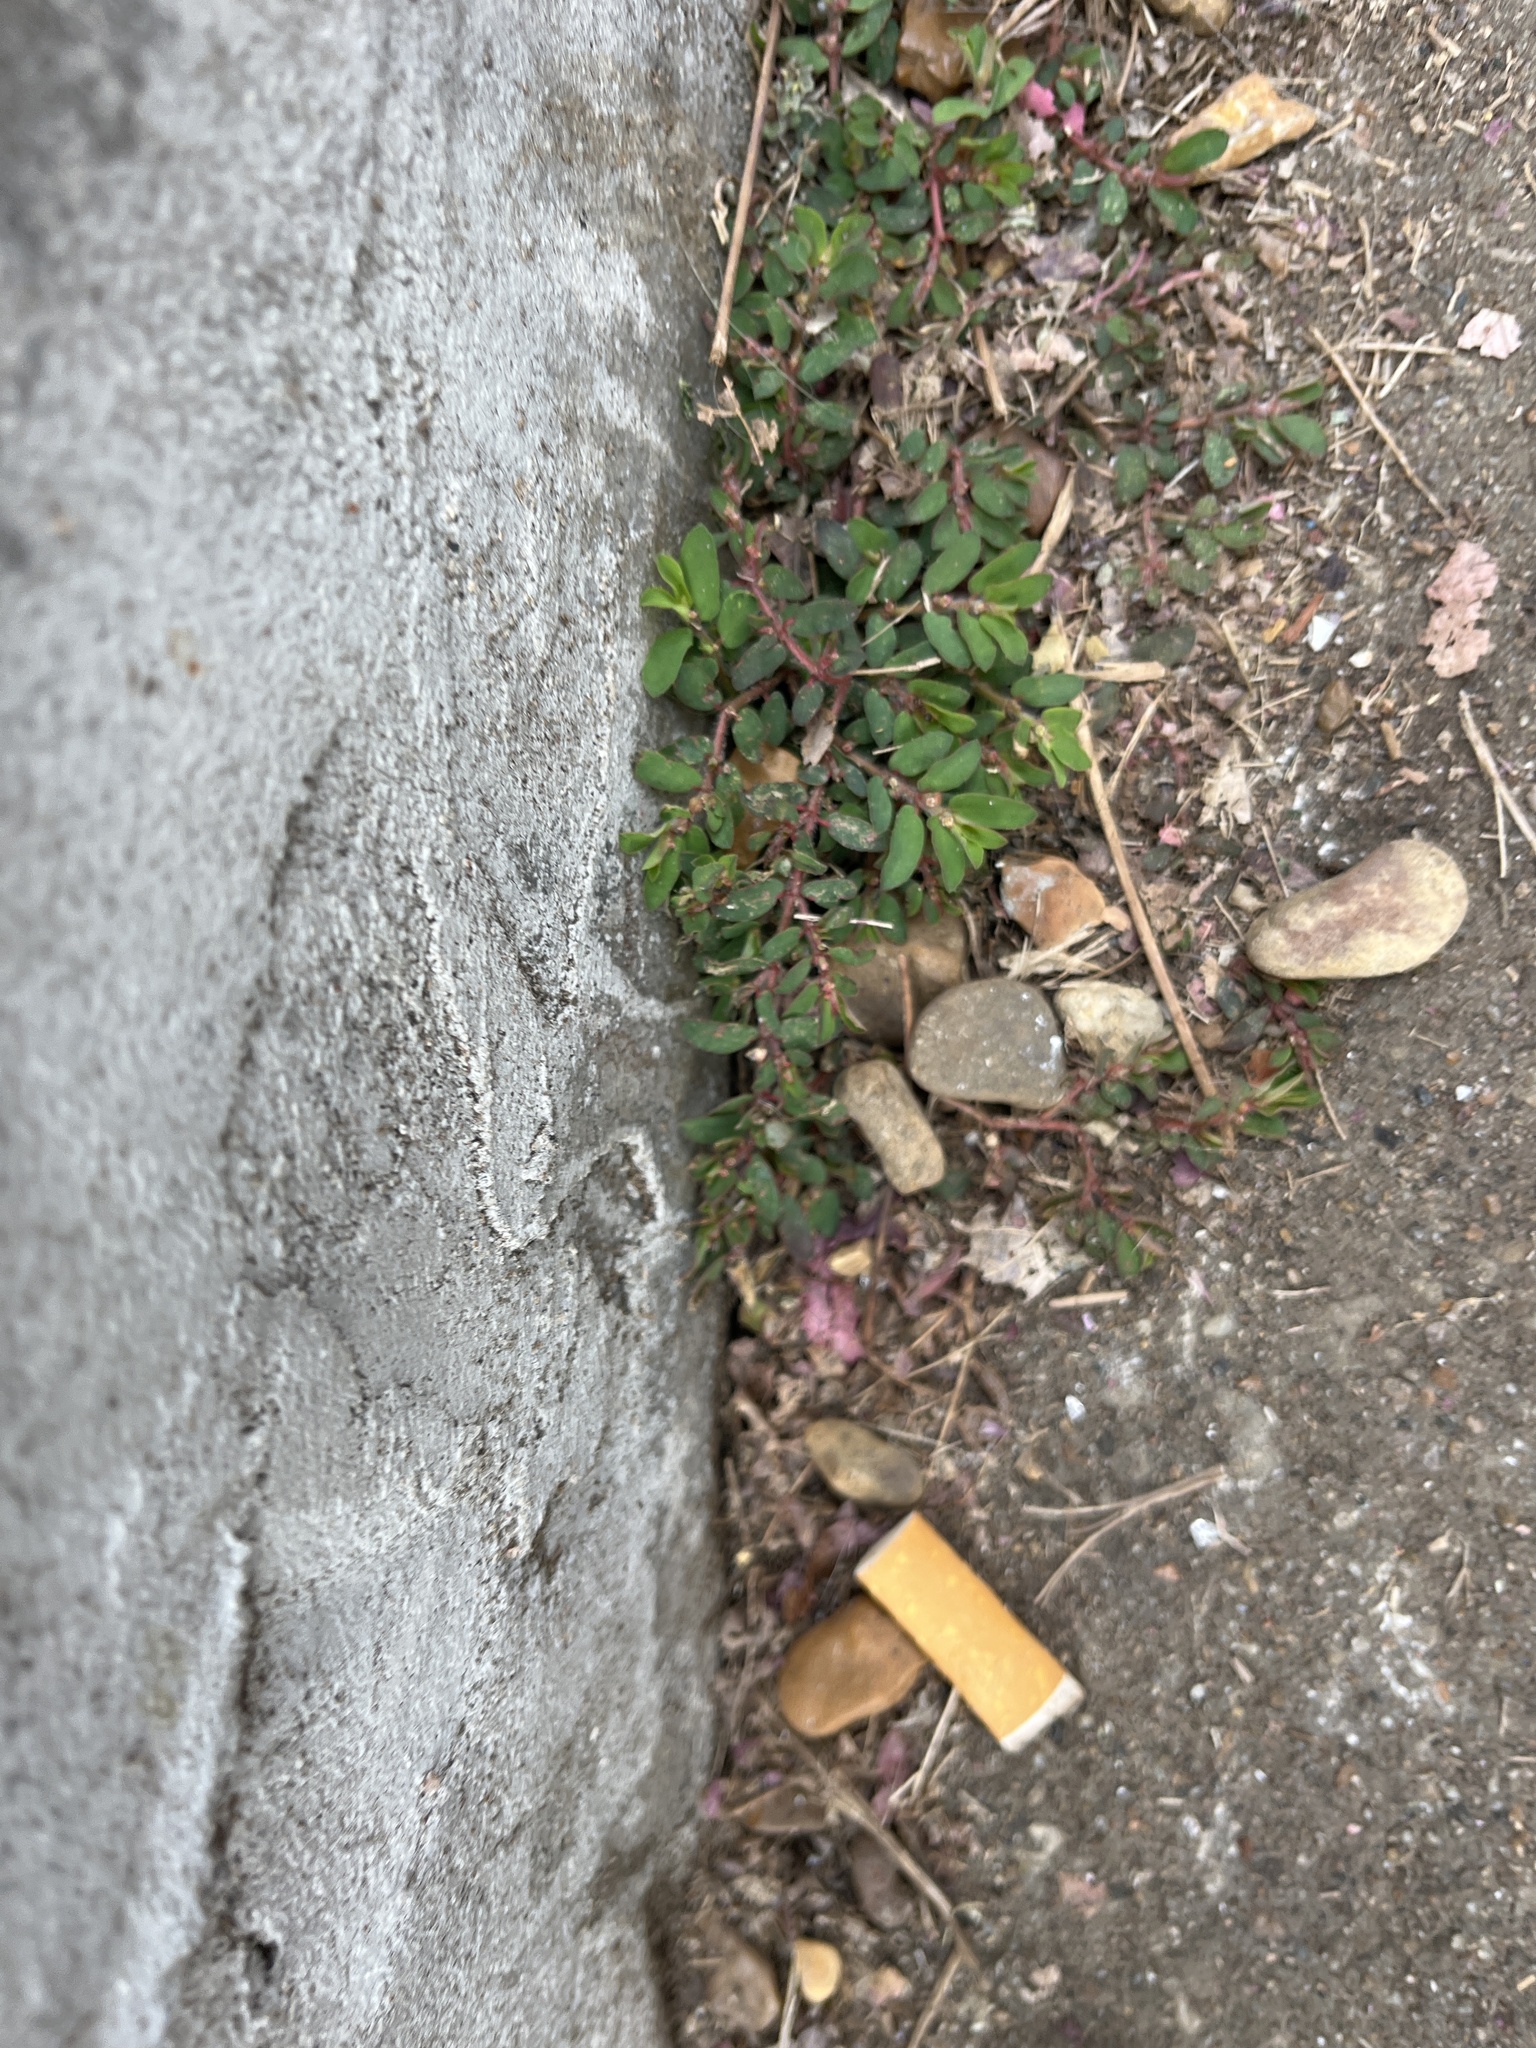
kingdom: Plantae
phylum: Tracheophyta
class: Magnoliopsida
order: Malpighiales
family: Euphorbiaceae
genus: Euphorbia
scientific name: Euphorbia maculata
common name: Spotted spurge
